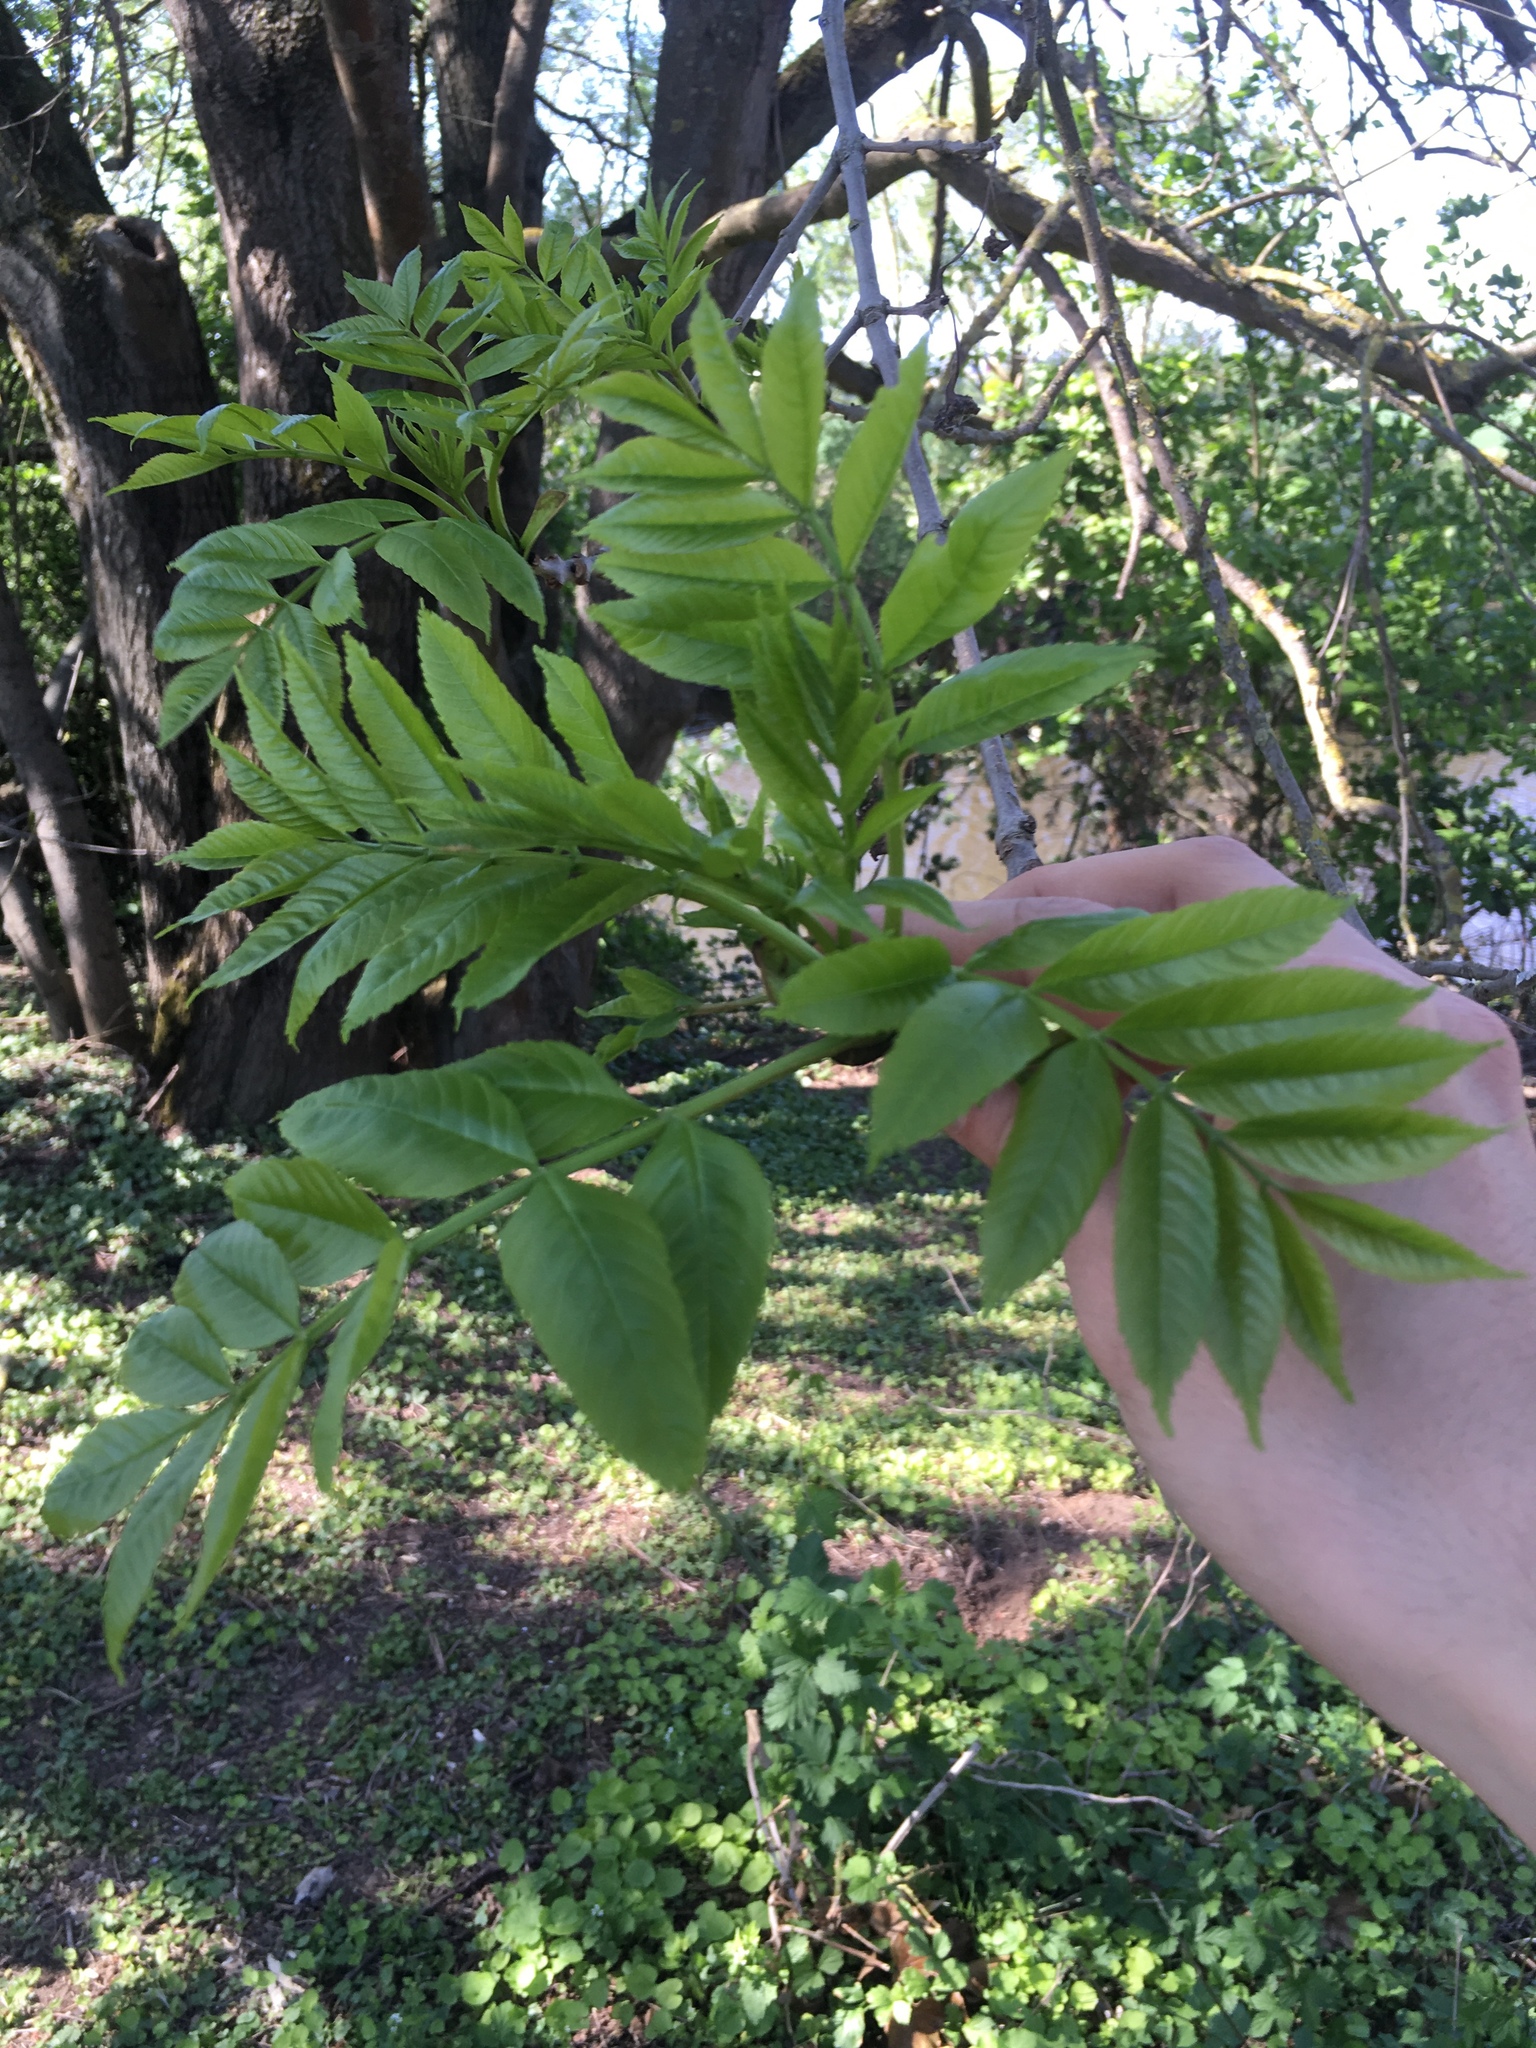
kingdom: Plantae
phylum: Tracheophyta
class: Magnoliopsida
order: Lamiales
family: Oleaceae
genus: Fraxinus
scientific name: Fraxinus excelsior
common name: European ash
